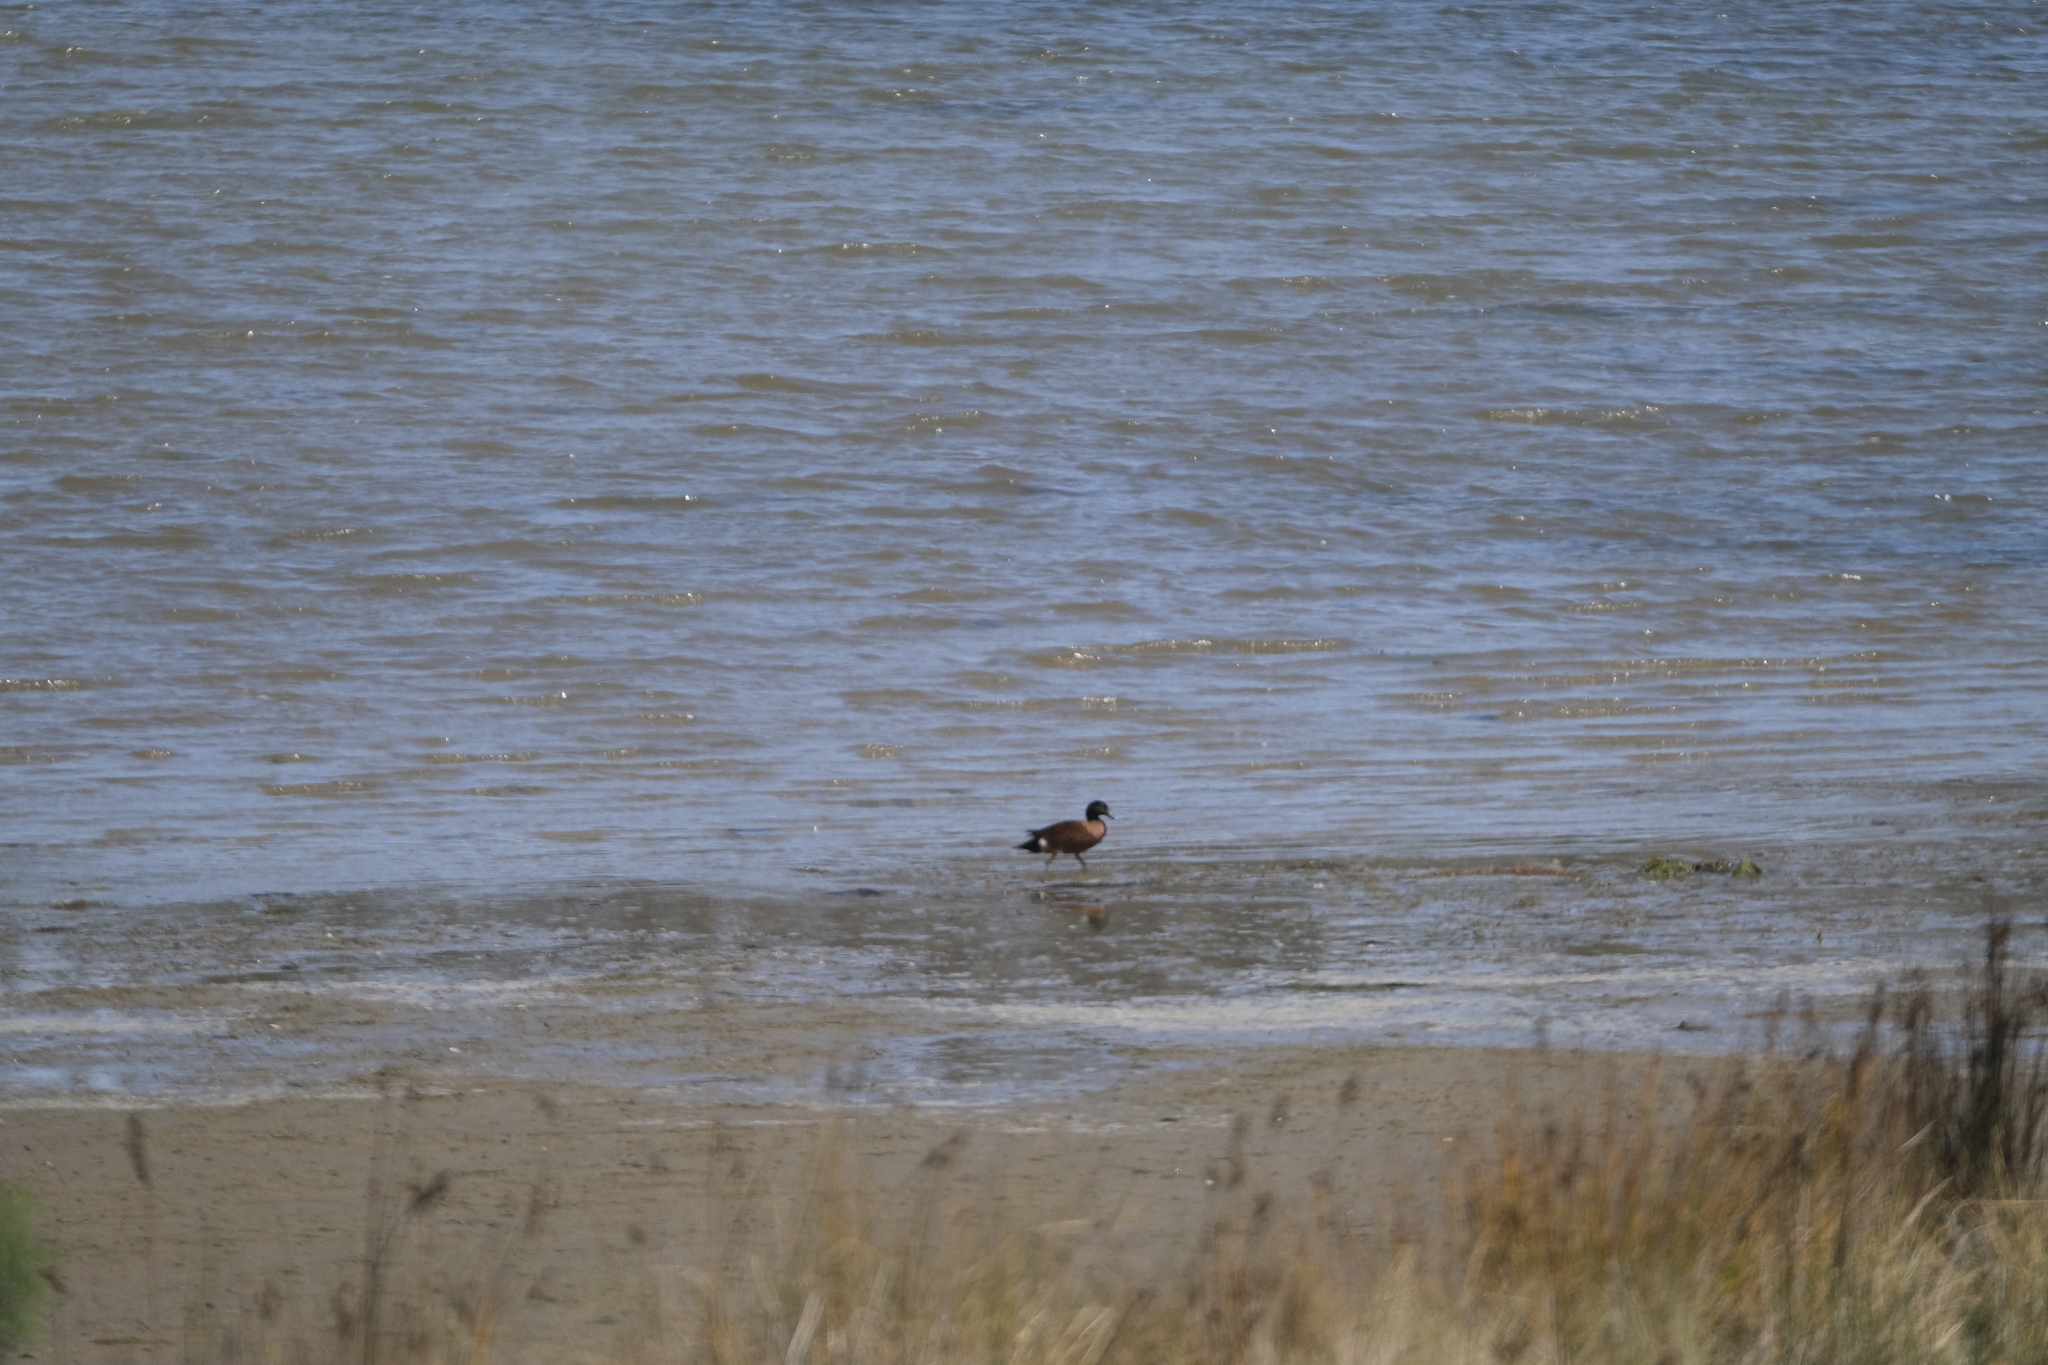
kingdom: Animalia
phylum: Chordata
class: Aves
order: Anseriformes
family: Anatidae
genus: Anas
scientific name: Anas castanea
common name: Chestnut teal
